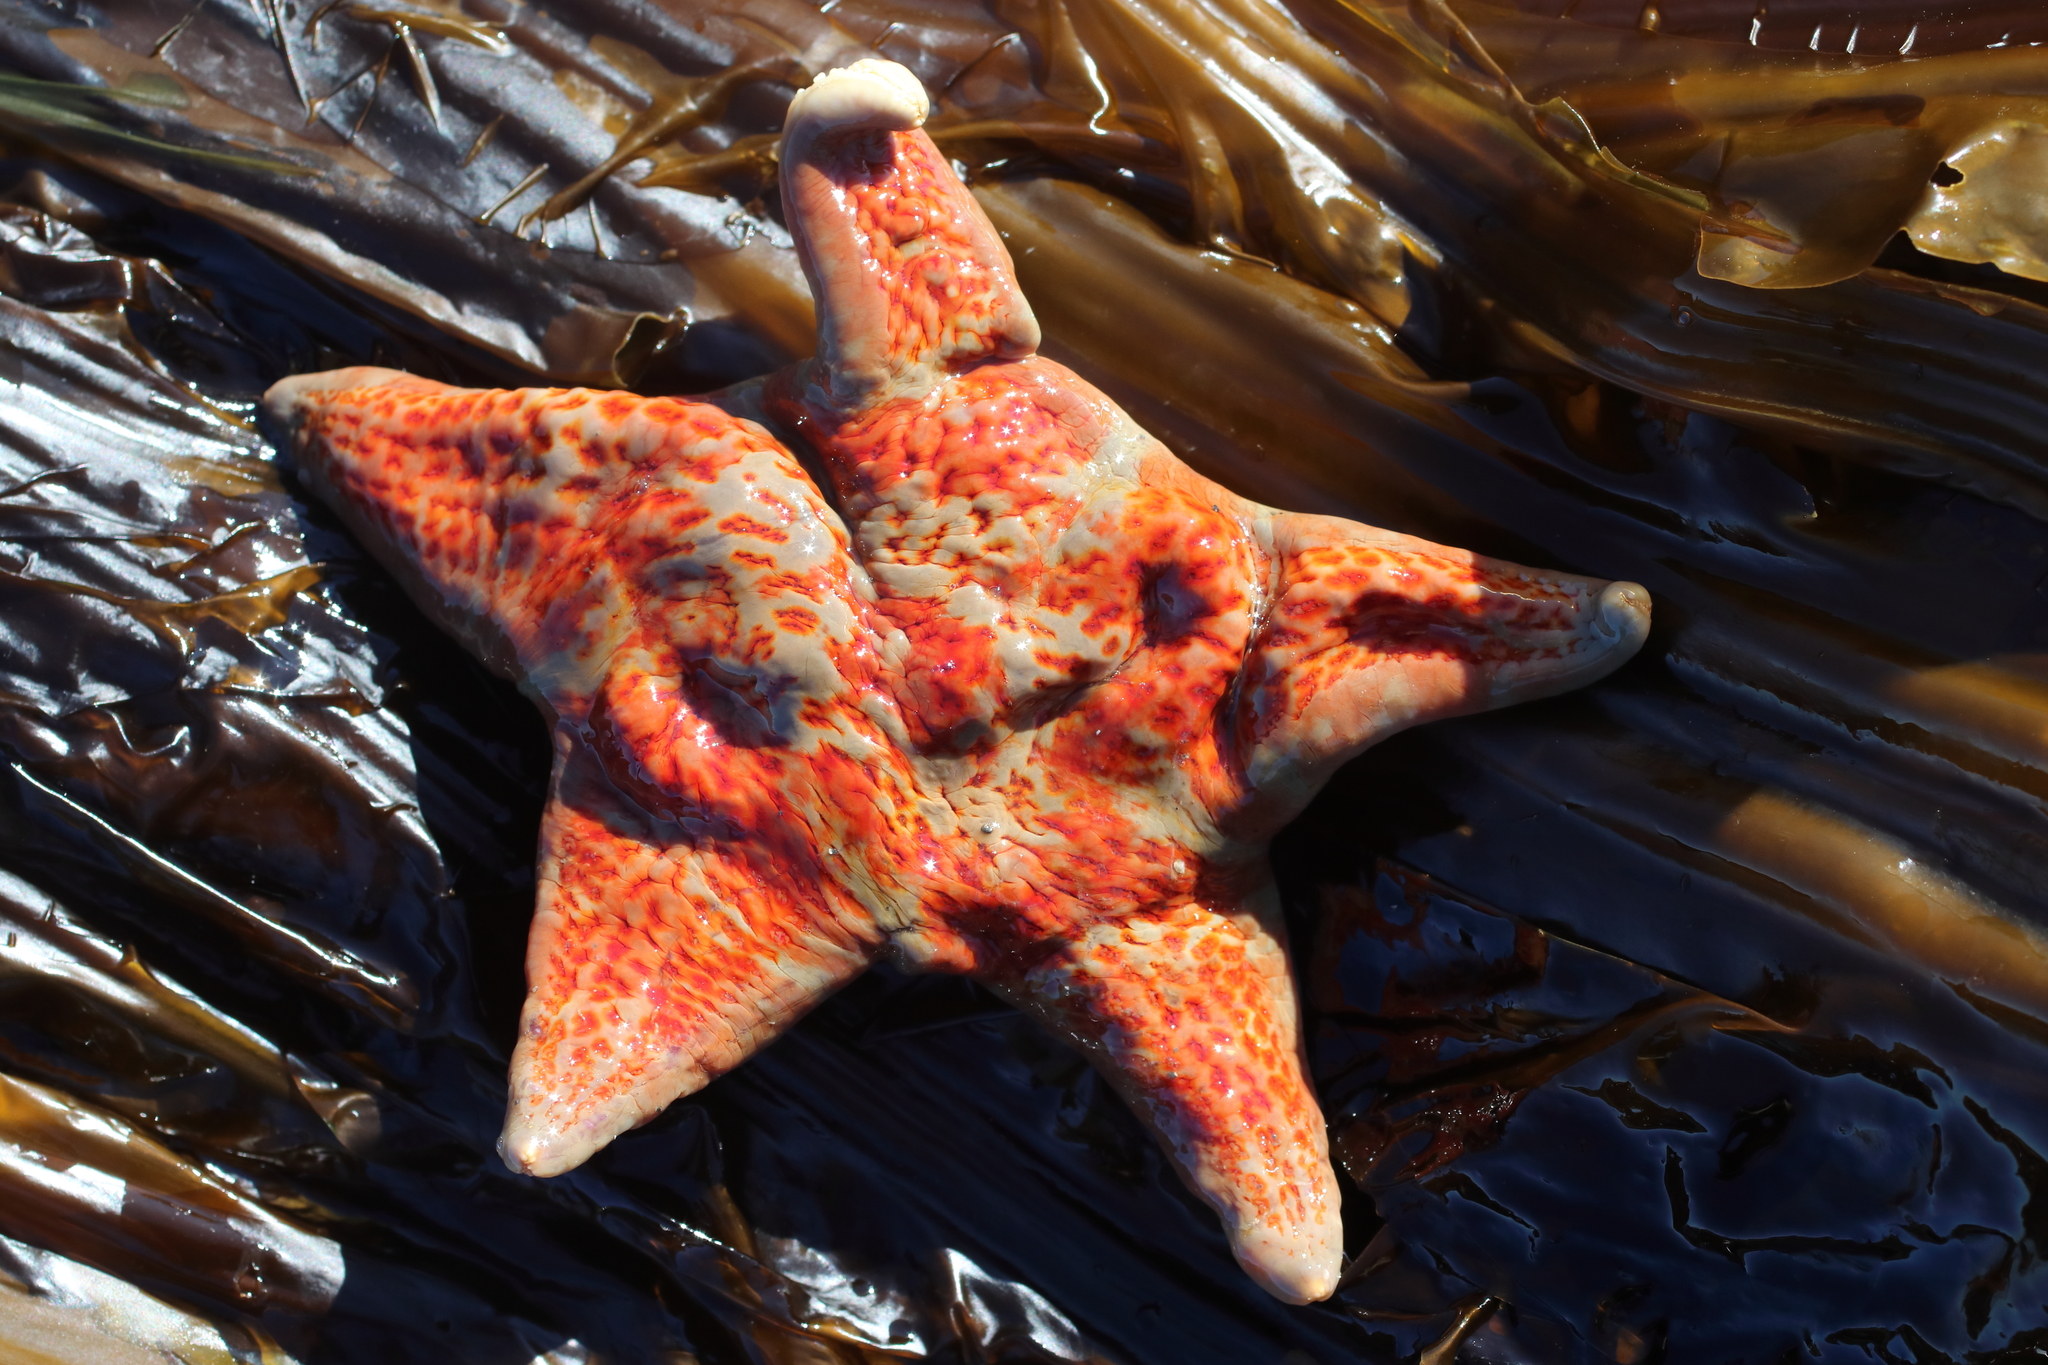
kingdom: Animalia
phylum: Echinodermata
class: Asteroidea
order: Valvatida
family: Asteropseidae
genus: Dermasterias
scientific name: Dermasterias imbricata
